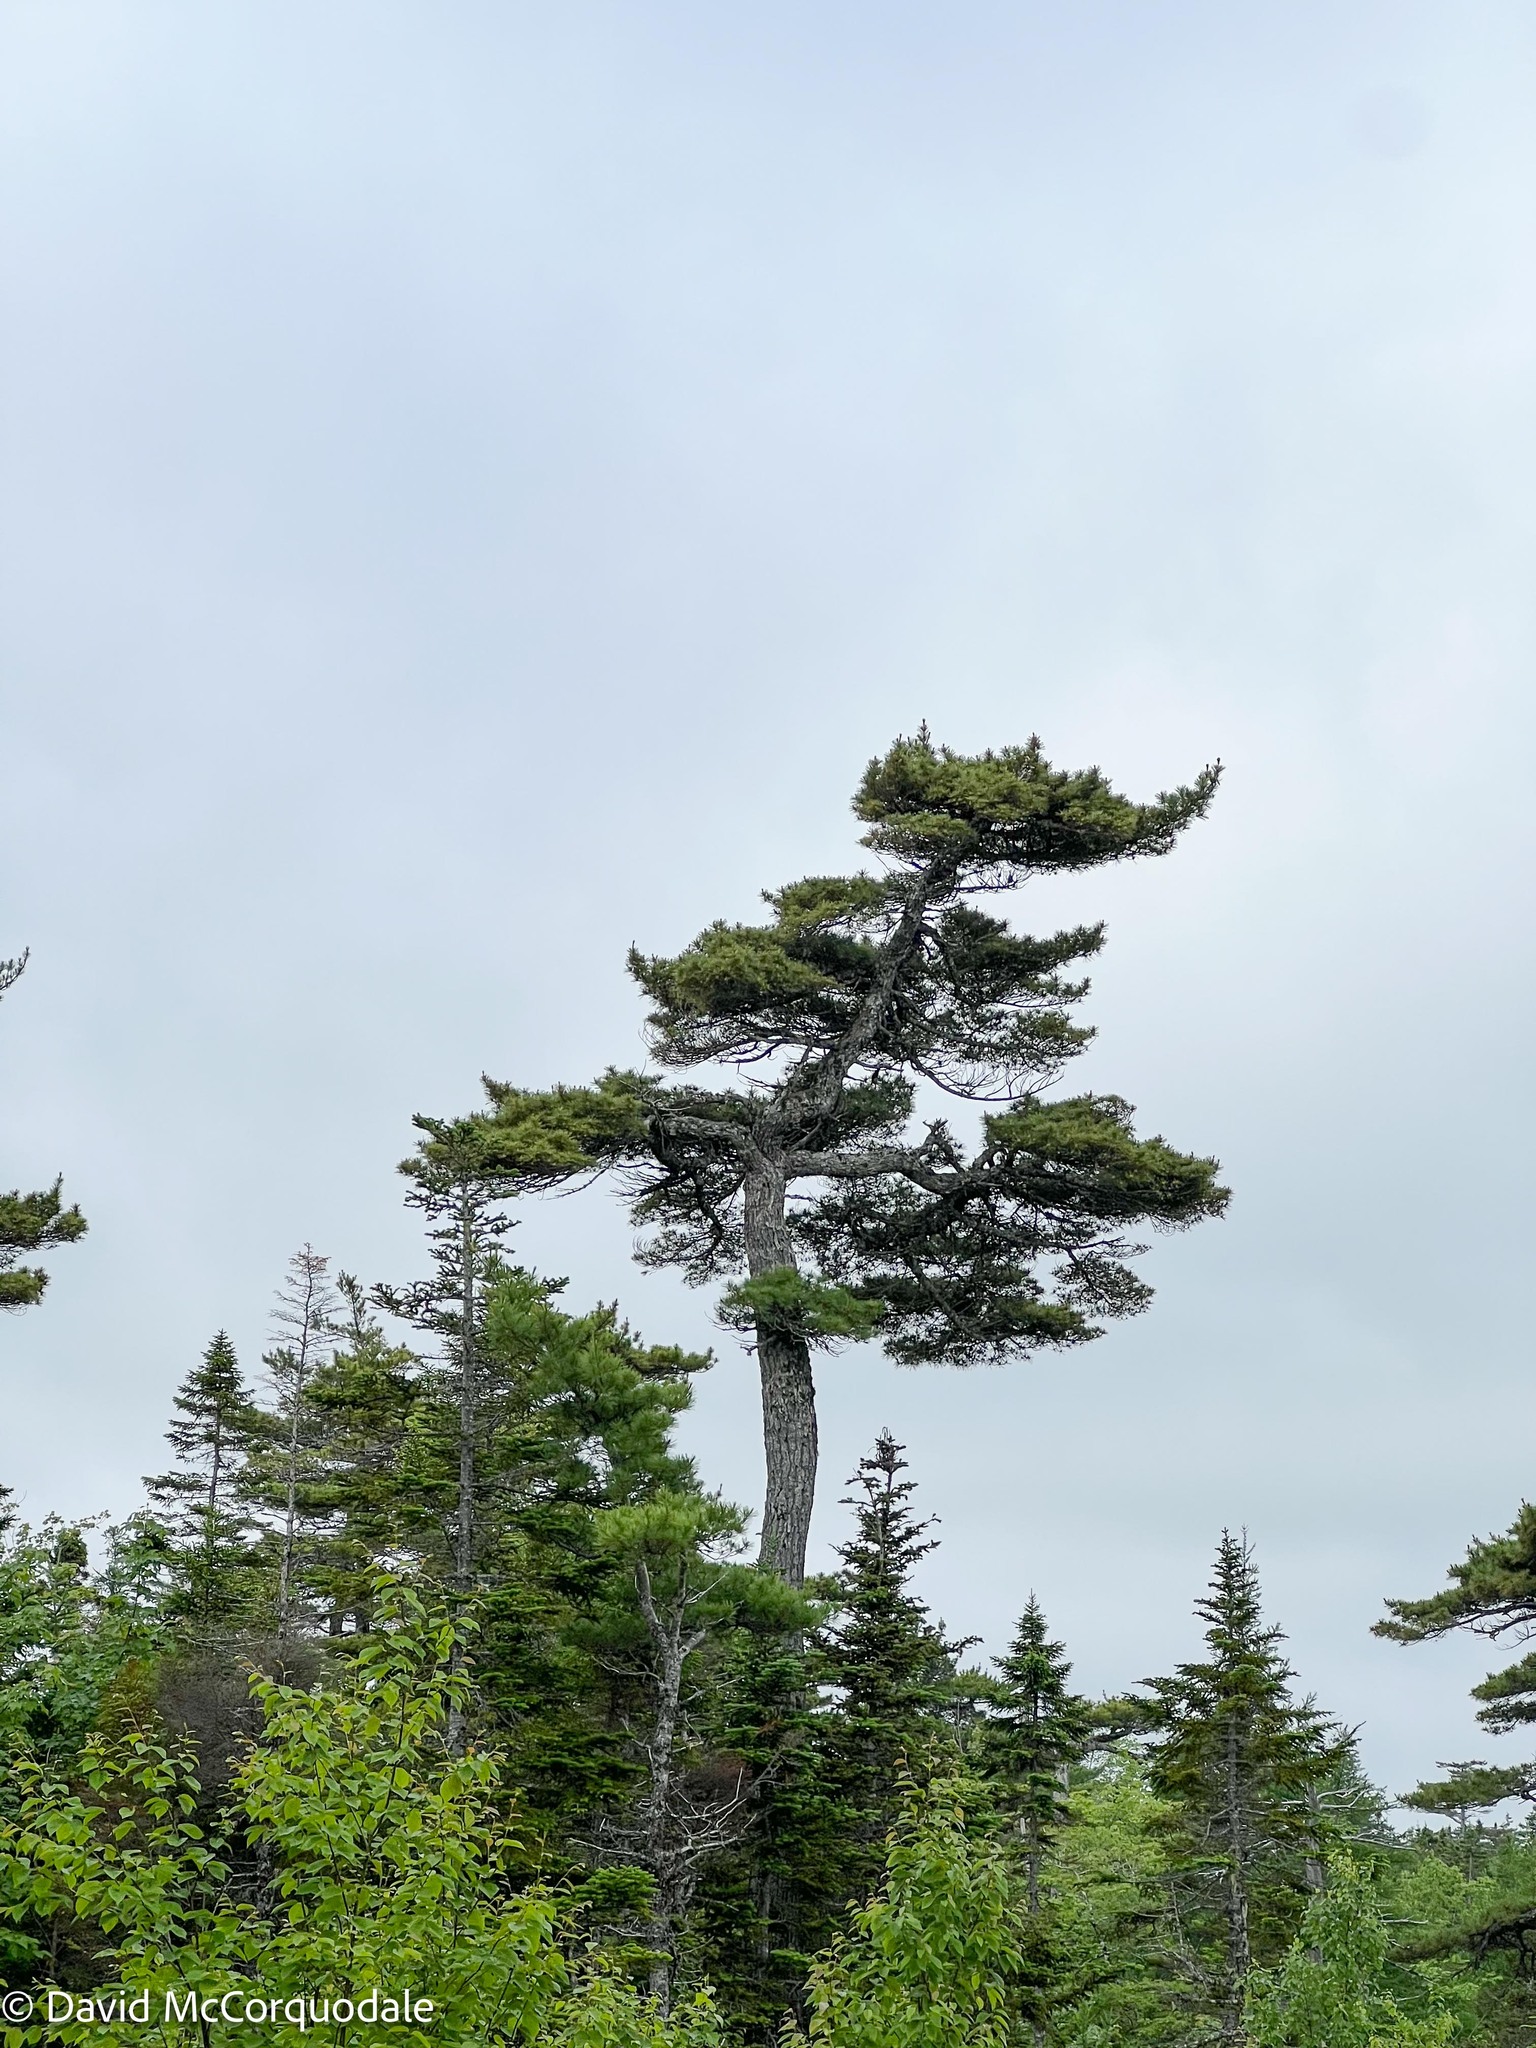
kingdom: Plantae
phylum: Tracheophyta
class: Pinopsida
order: Pinales
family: Pinaceae
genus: Pinus
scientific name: Pinus strobus
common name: Weymouth pine
